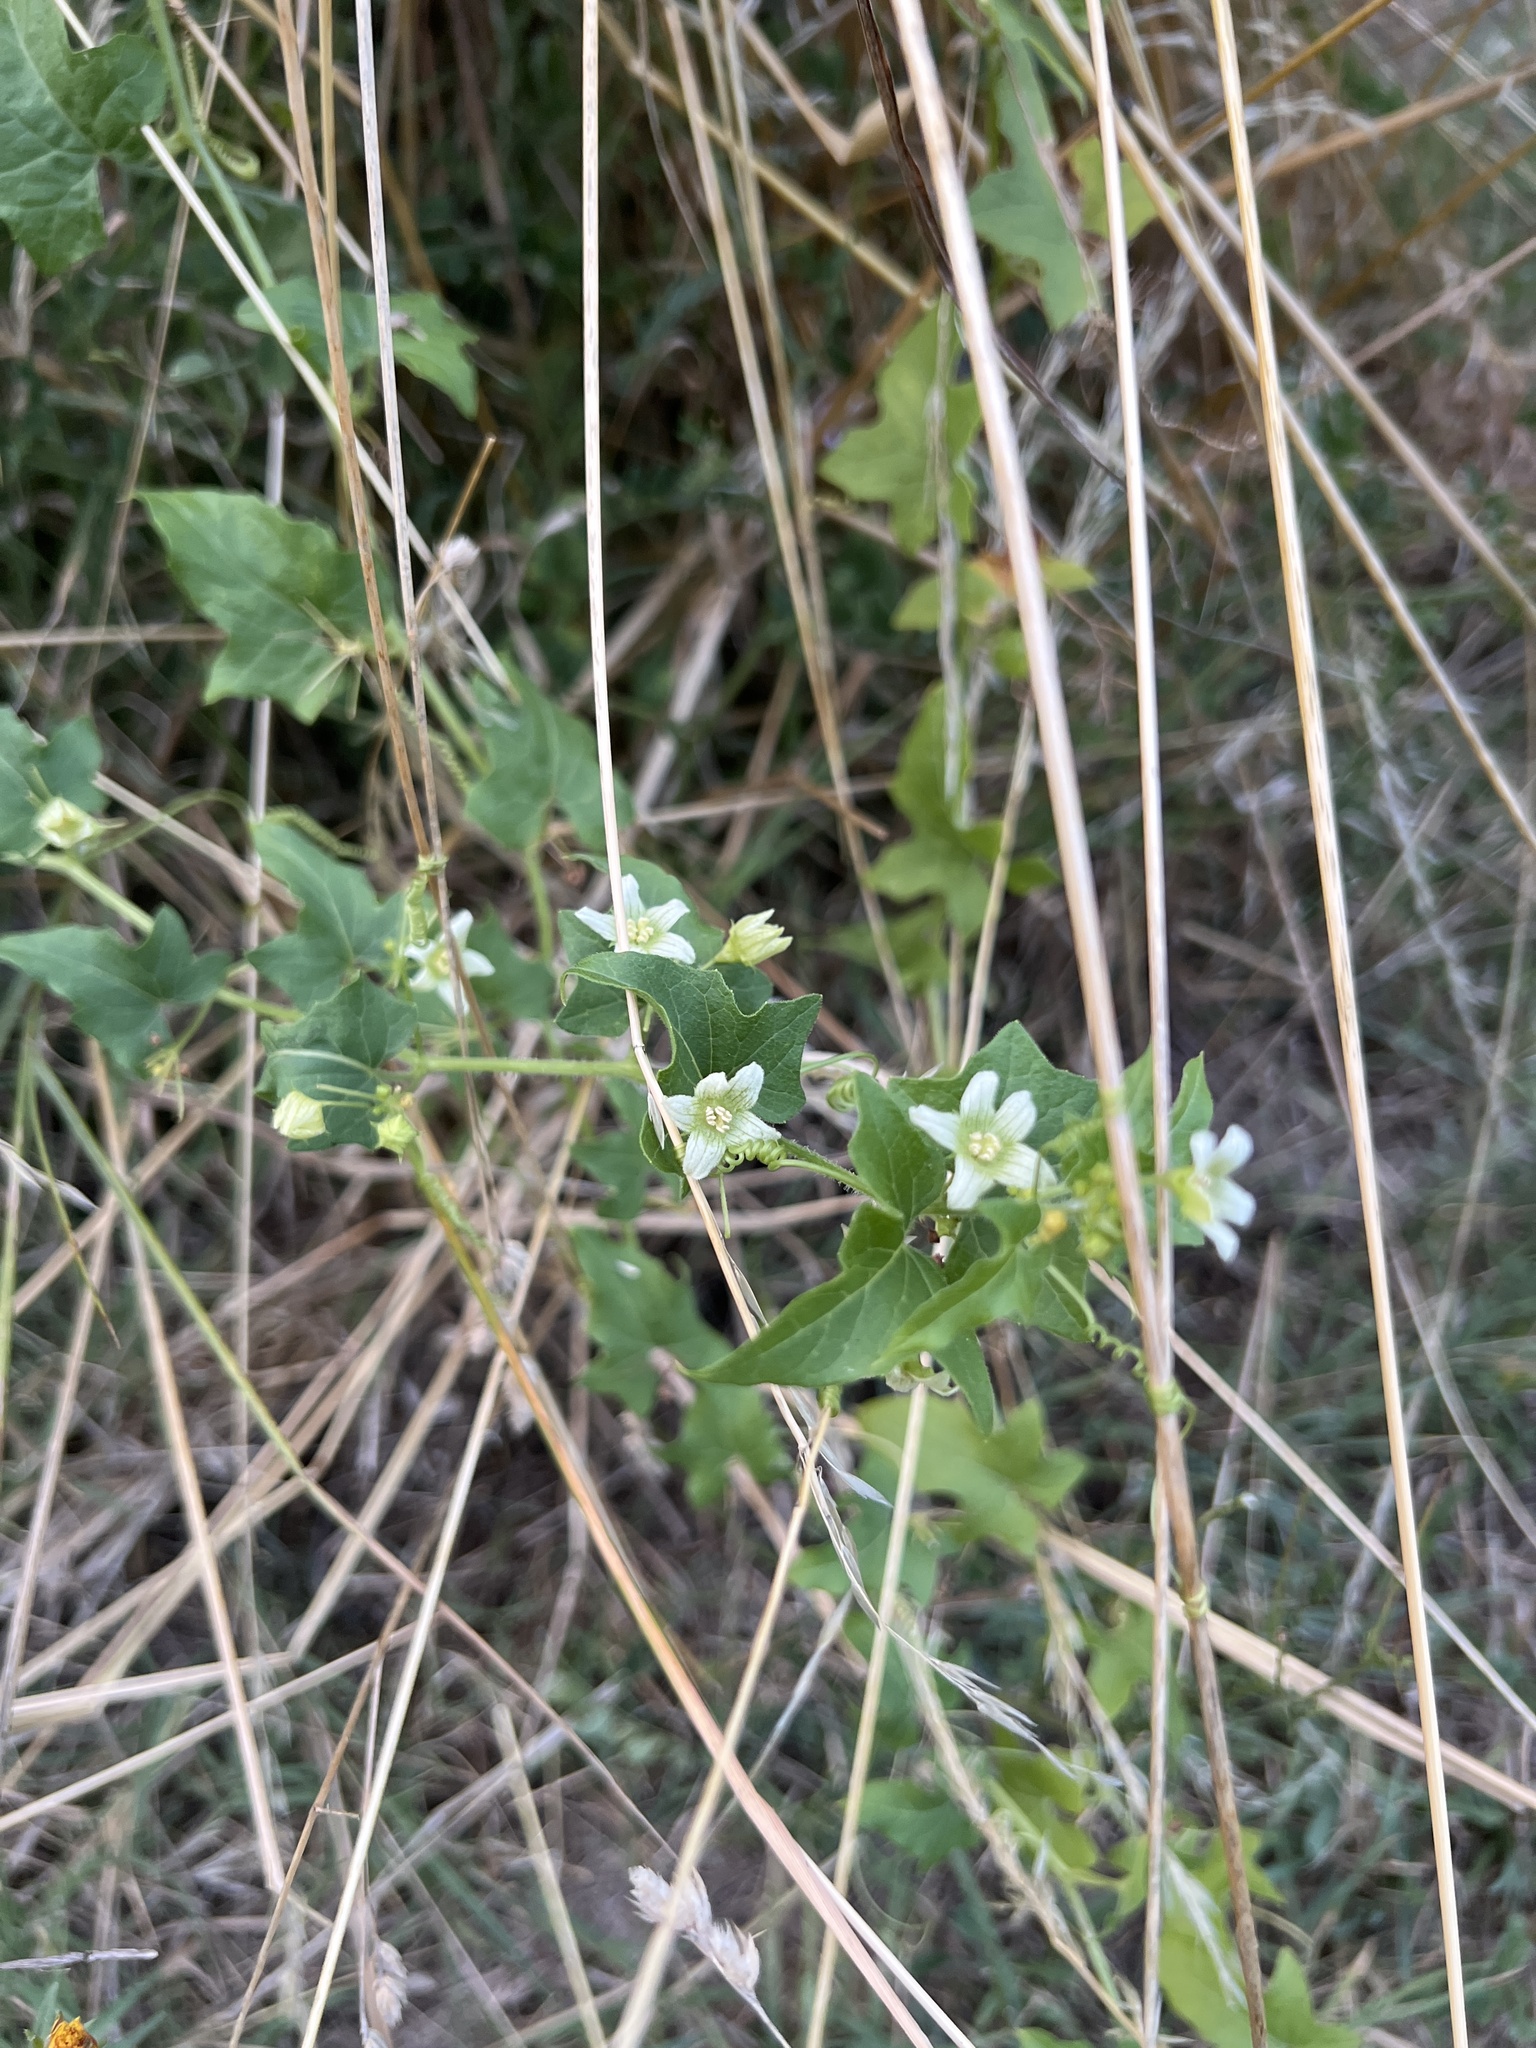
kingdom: Plantae
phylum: Tracheophyta
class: Magnoliopsida
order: Cucurbitales
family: Cucurbitaceae
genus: Bryonia
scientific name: Bryonia cretica
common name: Cretan bryony
